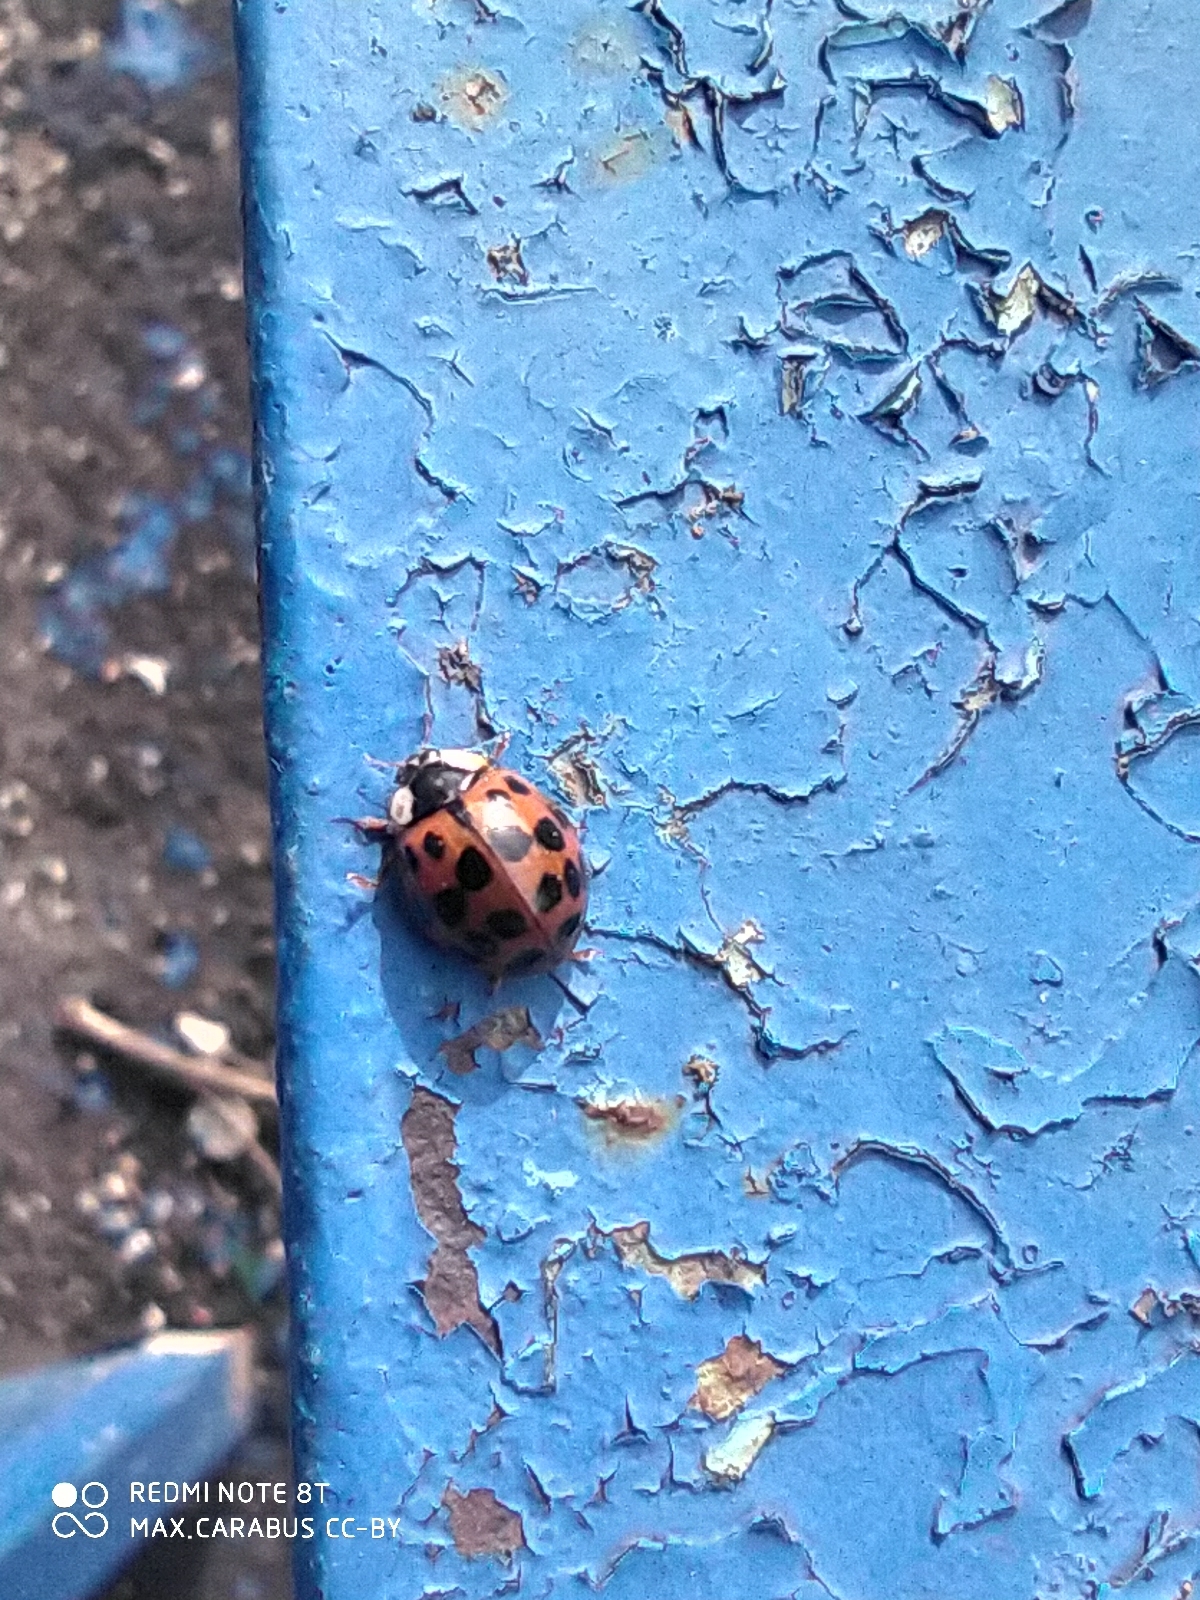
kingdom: Animalia
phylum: Arthropoda
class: Insecta
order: Coleoptera
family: Coccinellidae
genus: Harmonia
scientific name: Harmonia axyridis
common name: Harlequin ladybird
